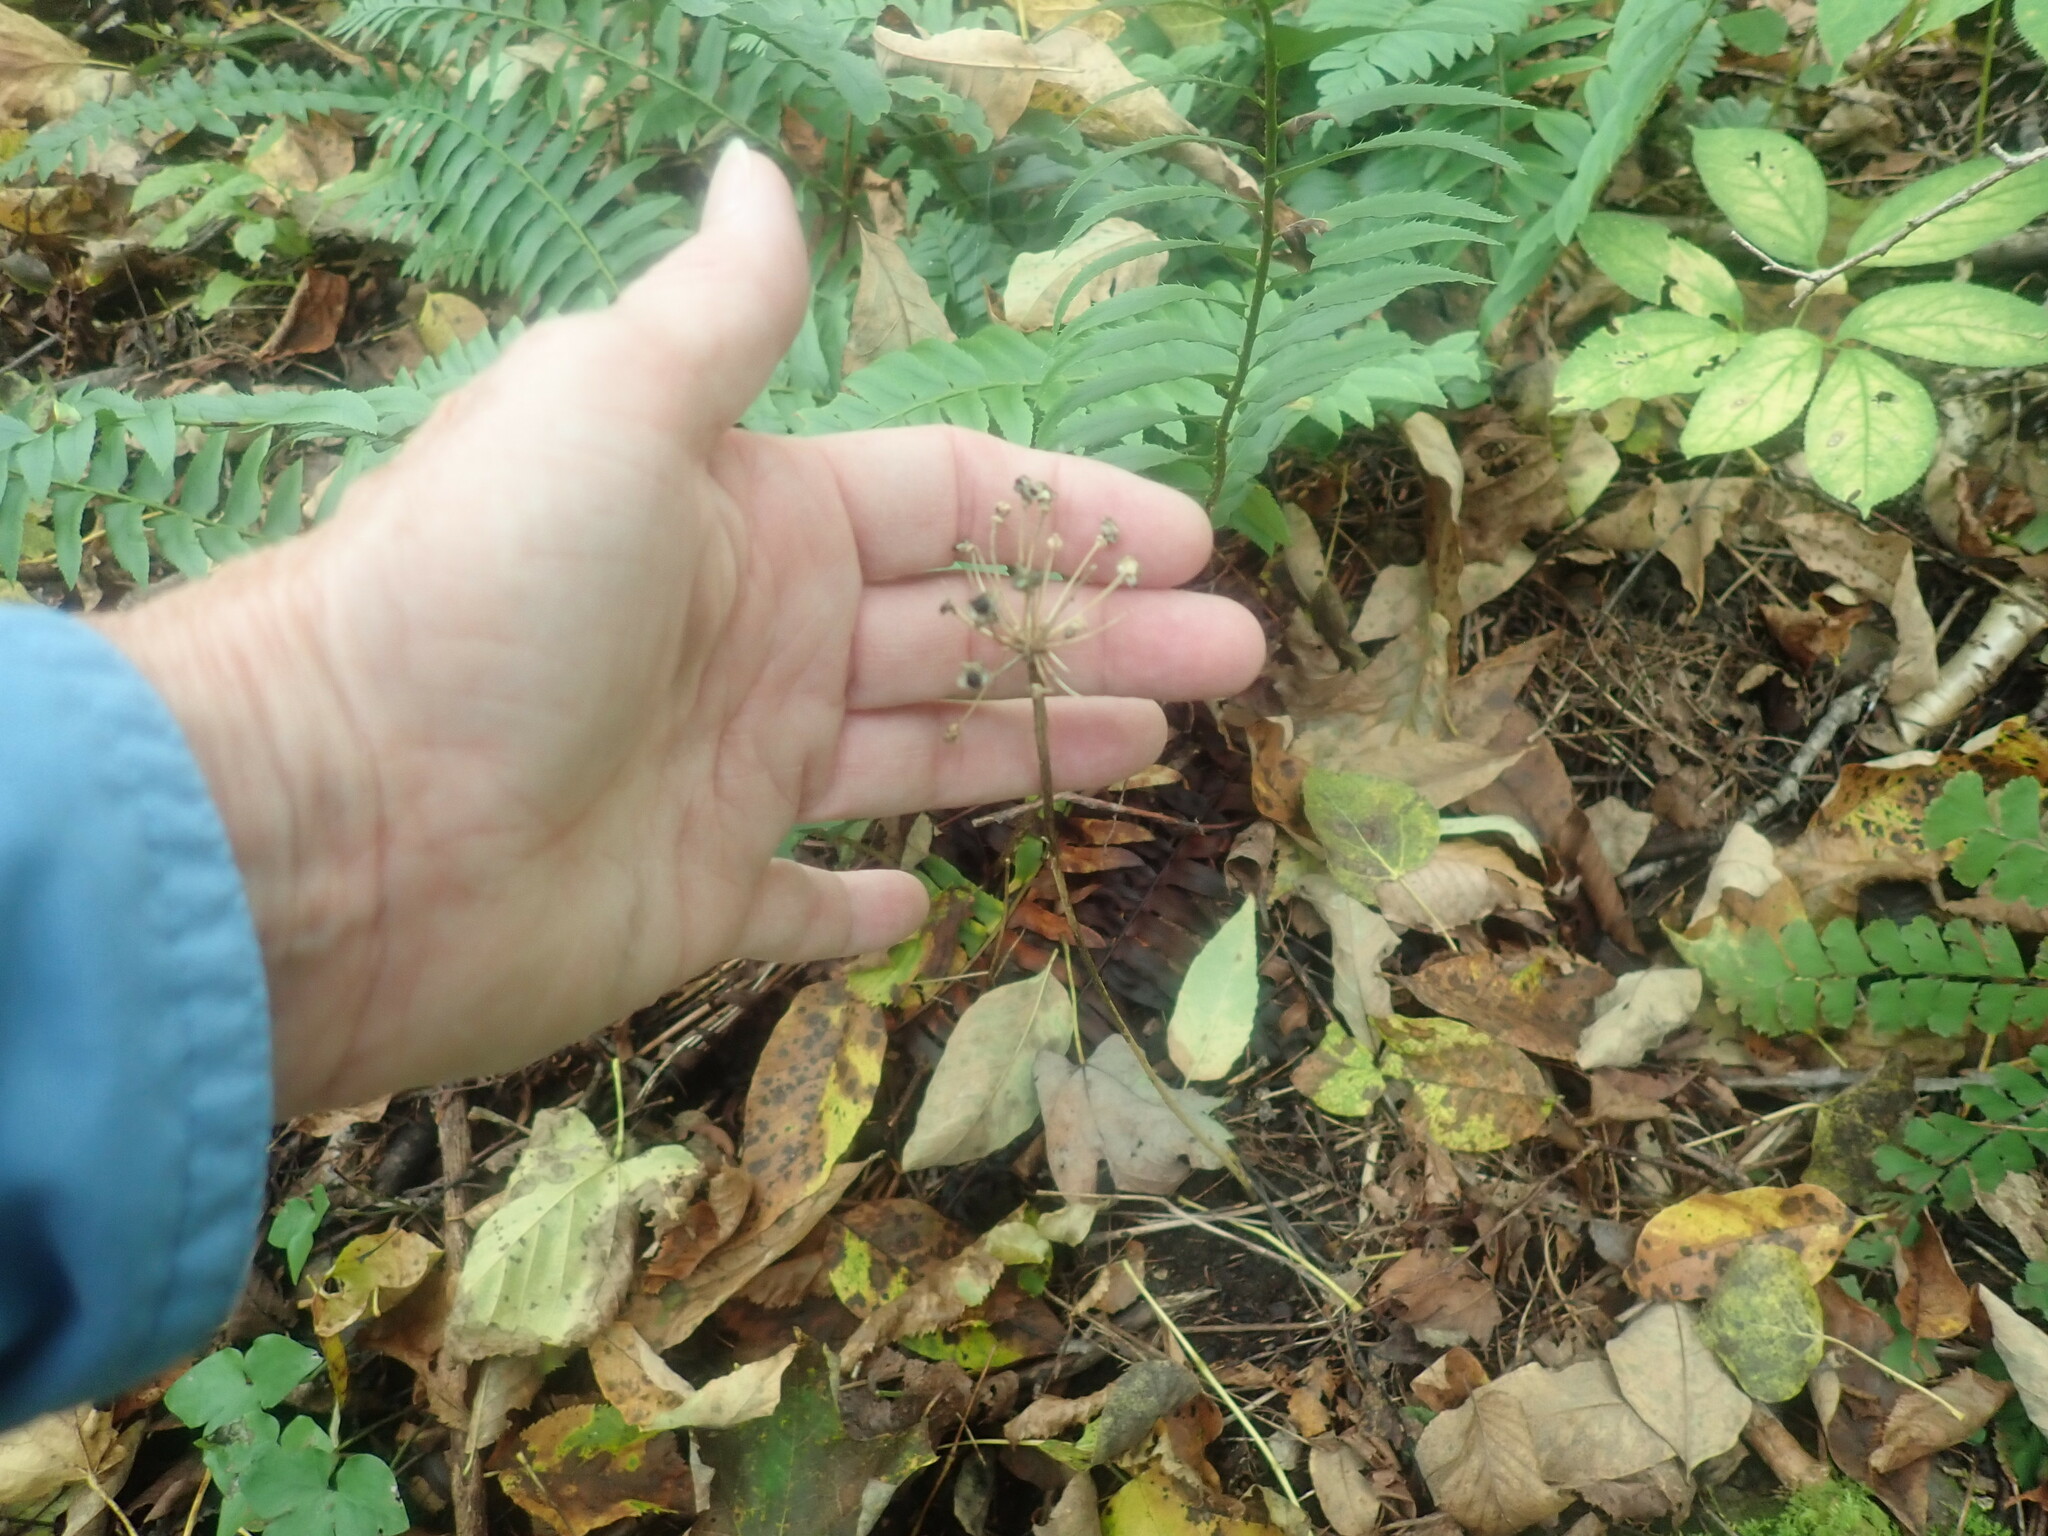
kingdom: Plantae
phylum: Tracheophyta
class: Liliopsida
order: Asparagales
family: Amaryllidaceae
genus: Allium
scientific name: Allium tricoccum
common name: Ramp
